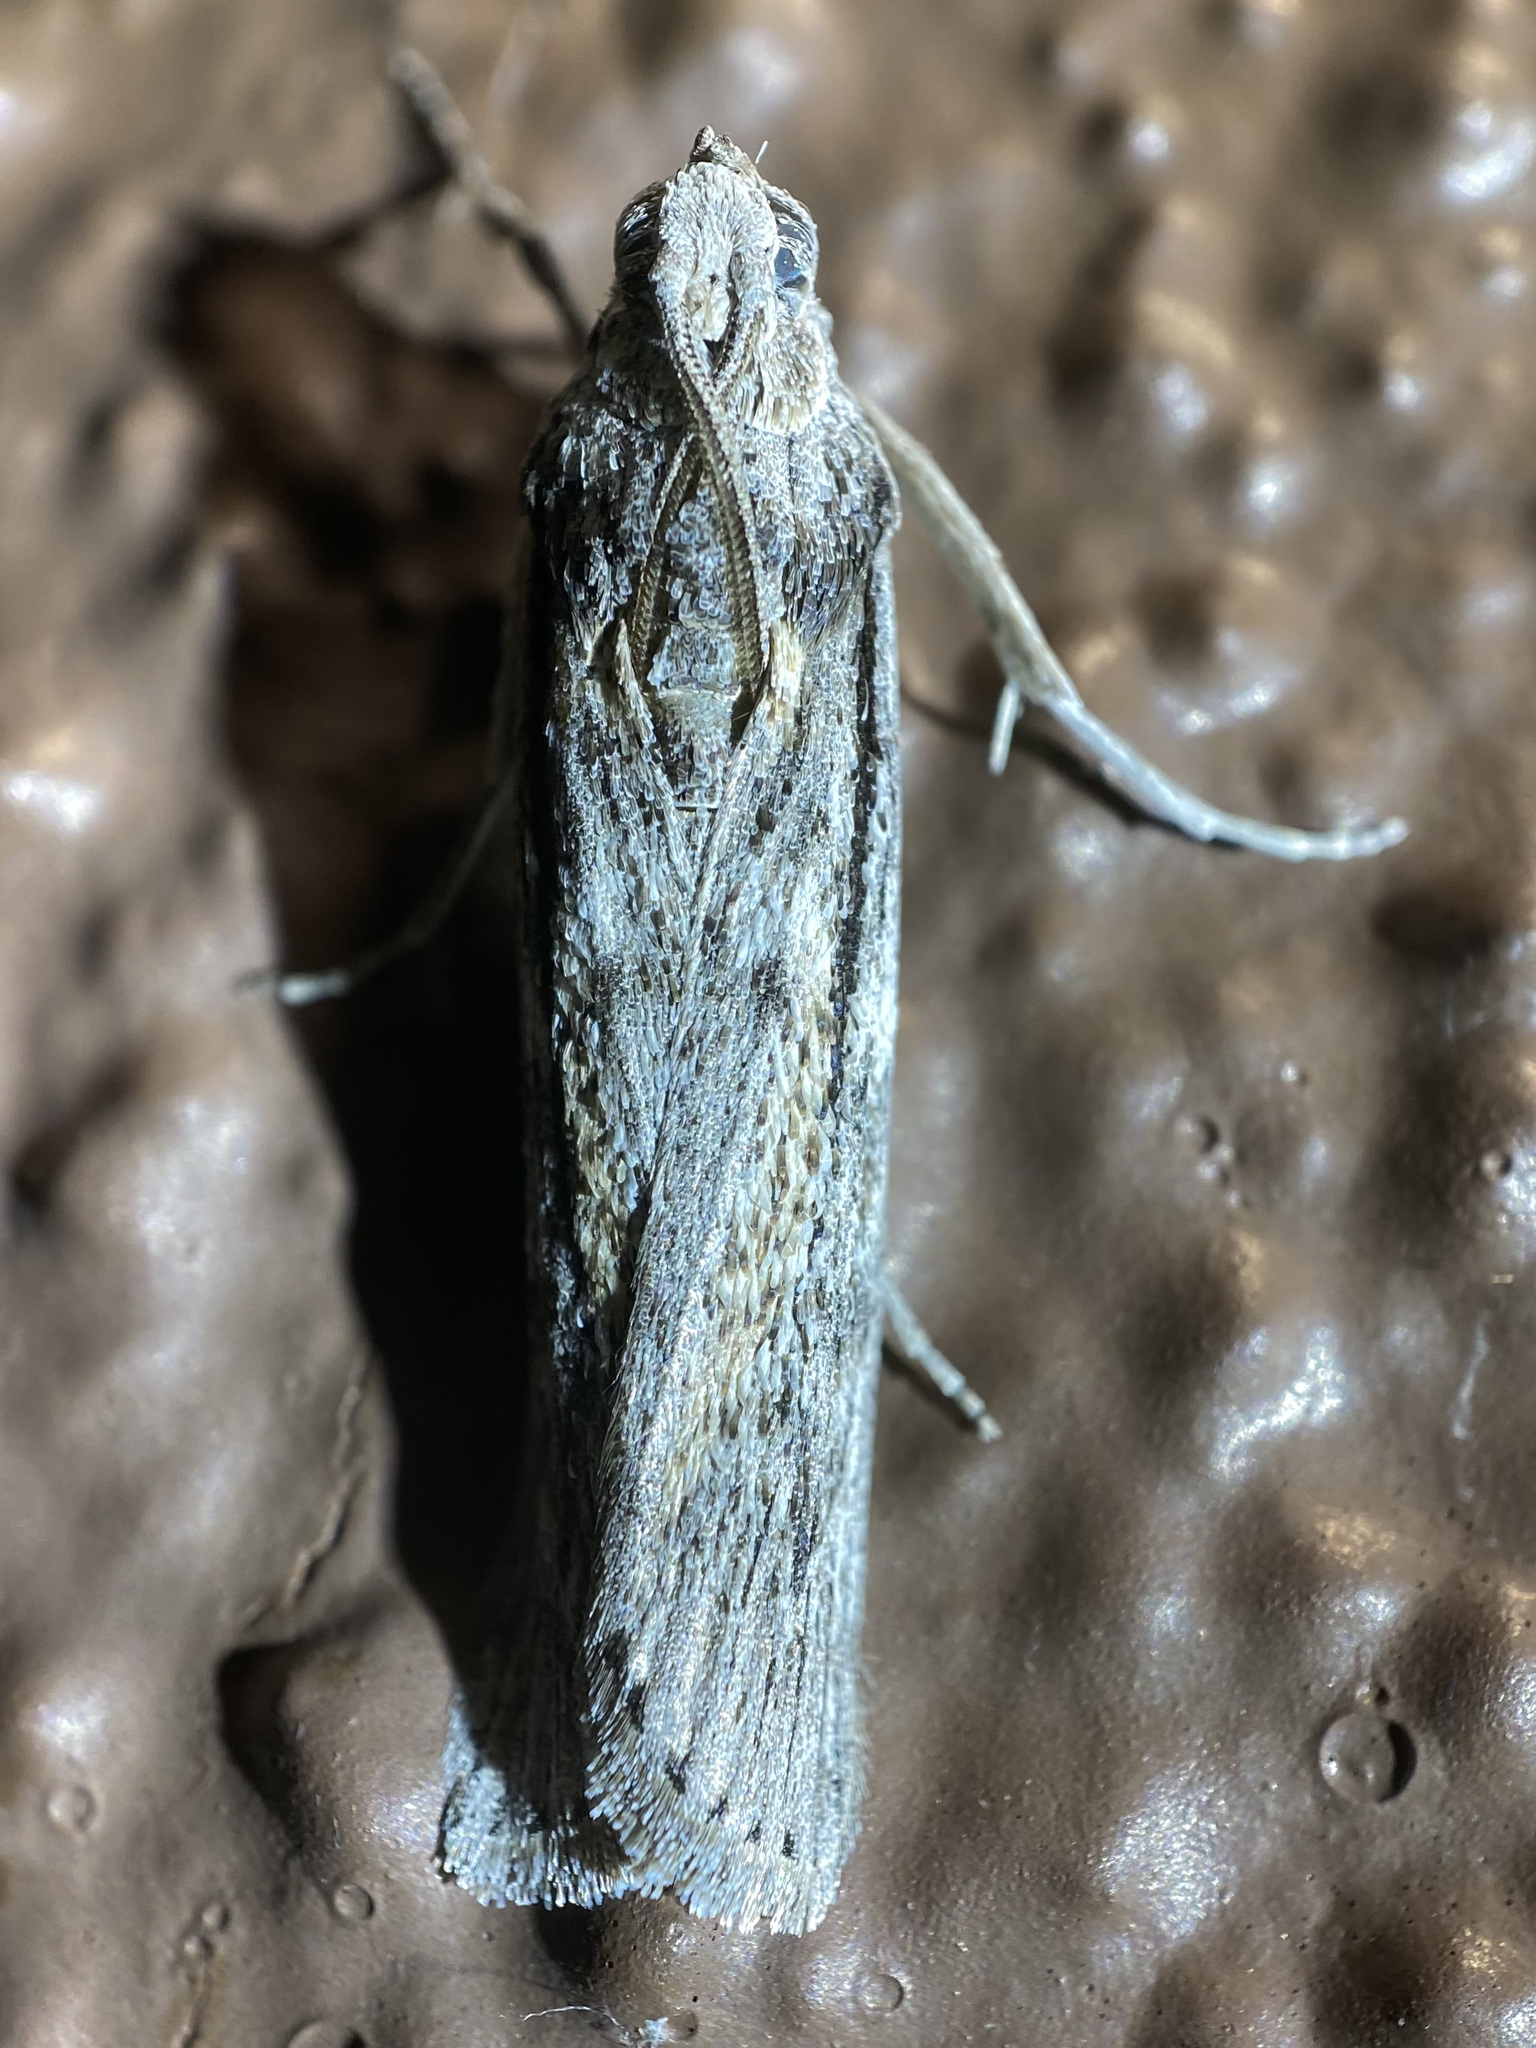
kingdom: Animalia
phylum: Arthropoda
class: Insecta
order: Lepidoptera
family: Pyralidae
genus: Zophodia
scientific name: Zophodia Cactobrosis fernaldialis
